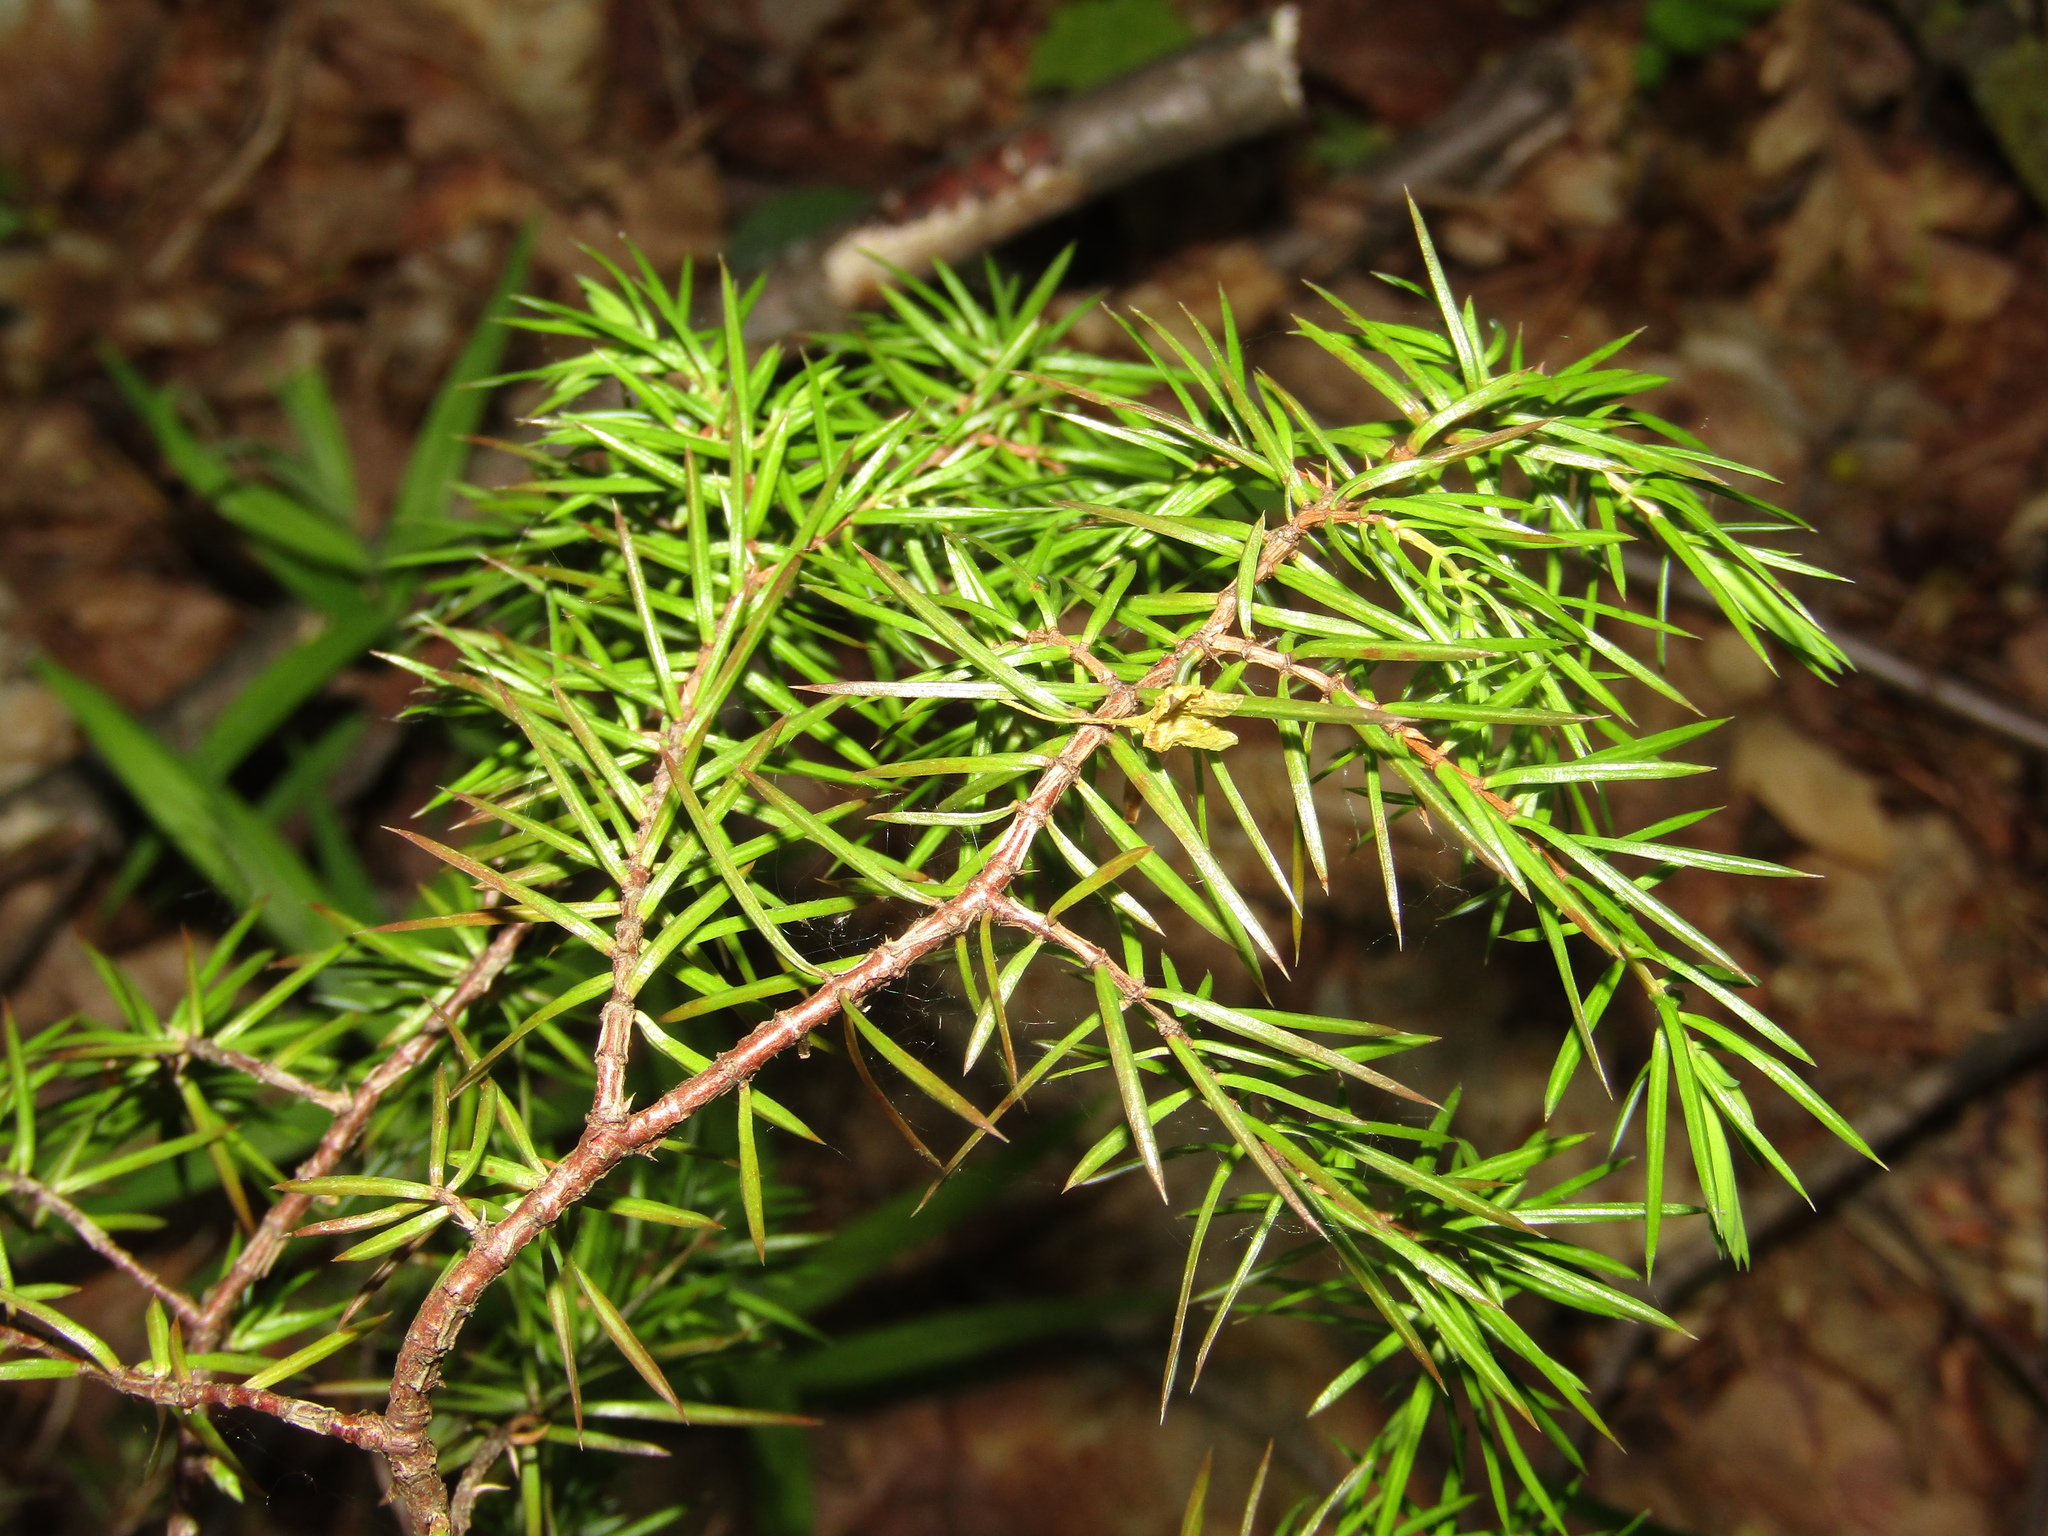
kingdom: Plantae
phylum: Tracheophyta
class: Pinopsida
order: Pinales
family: Cupressaceae
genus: Juniperus
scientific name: Juniperus communis
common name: Common juniper
